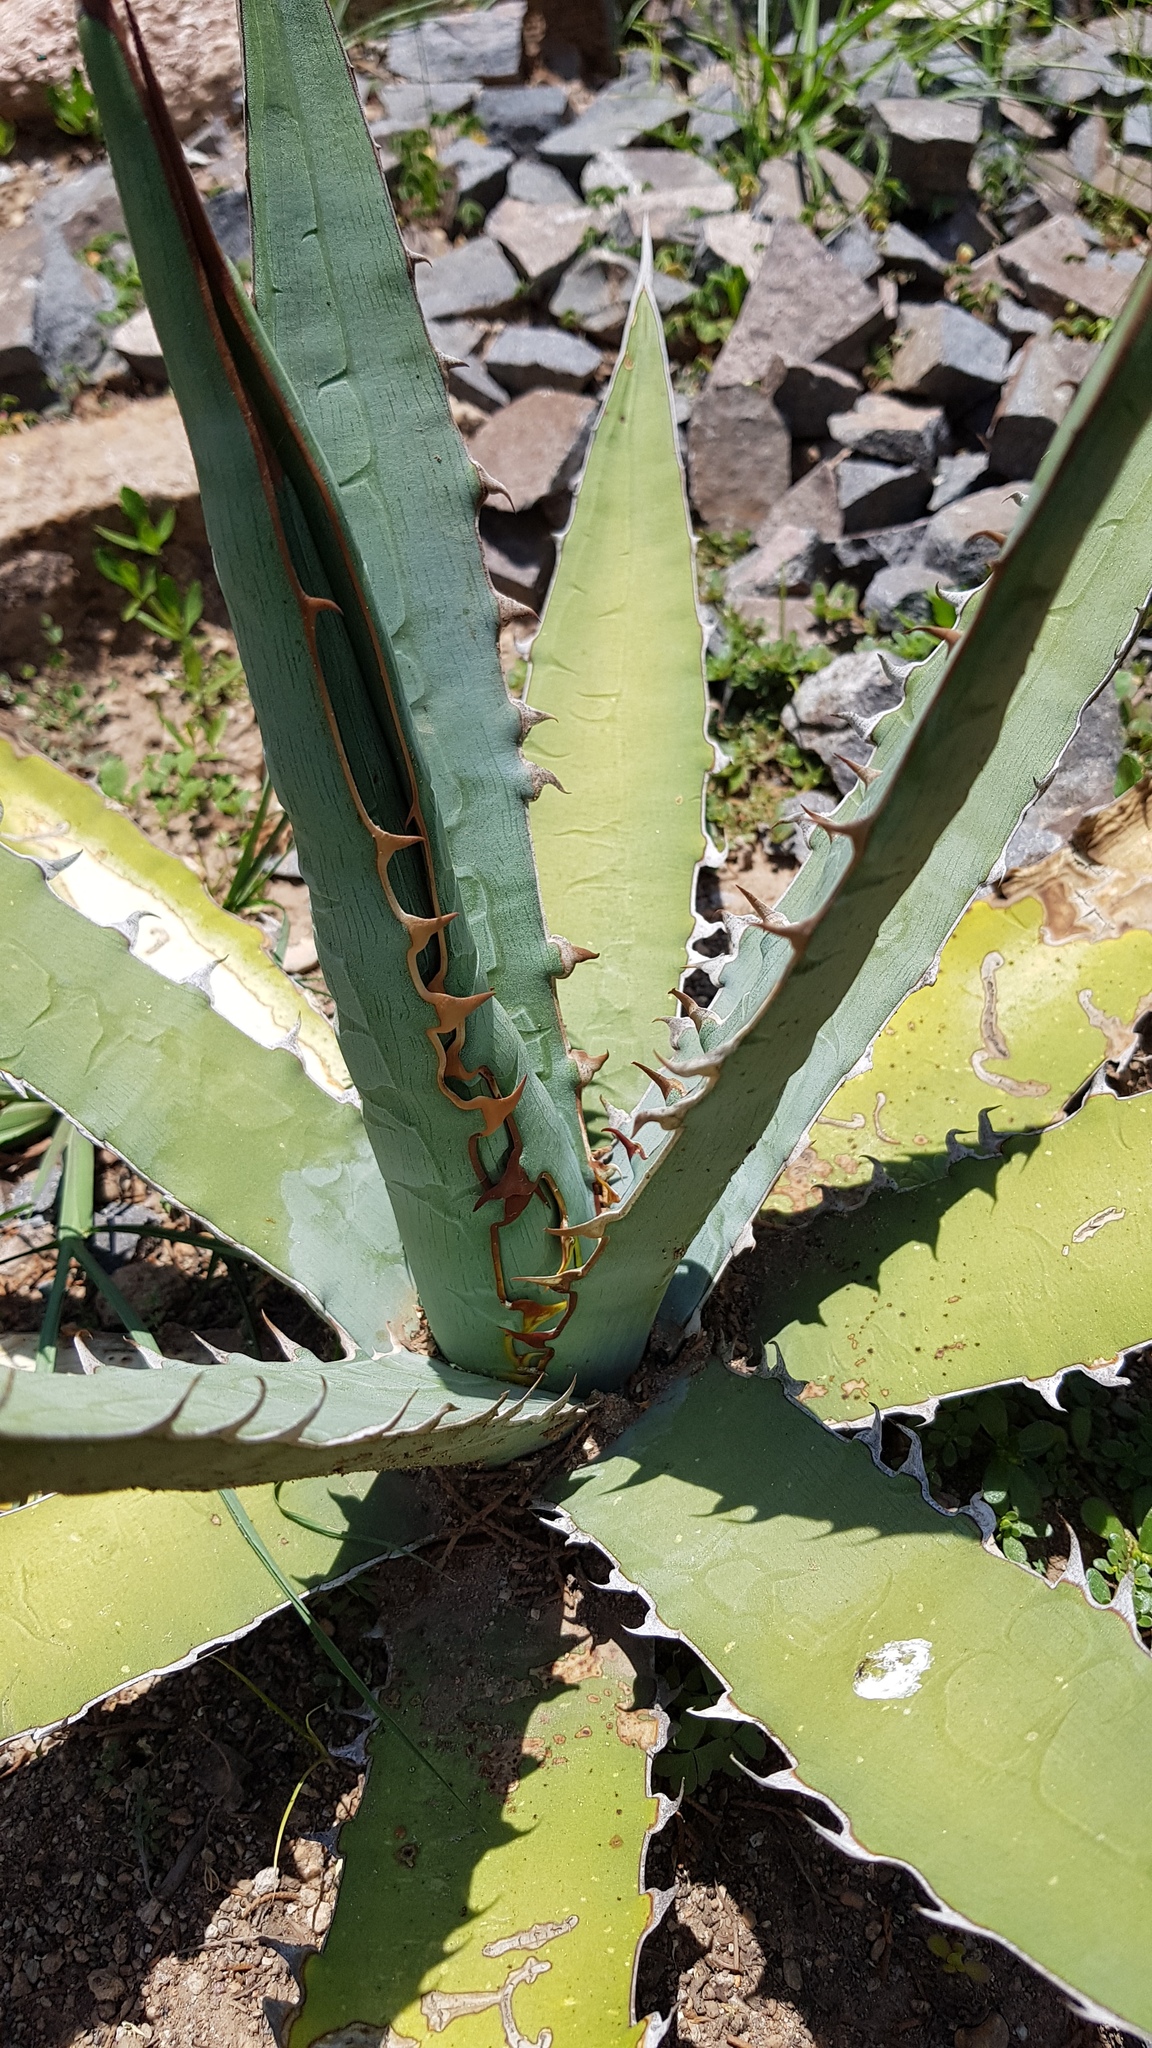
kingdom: Plantae
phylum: Tracheophyta
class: Liliopsida
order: Asparagales
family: Asparagaceae
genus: Agave
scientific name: Agave xylonacantha
